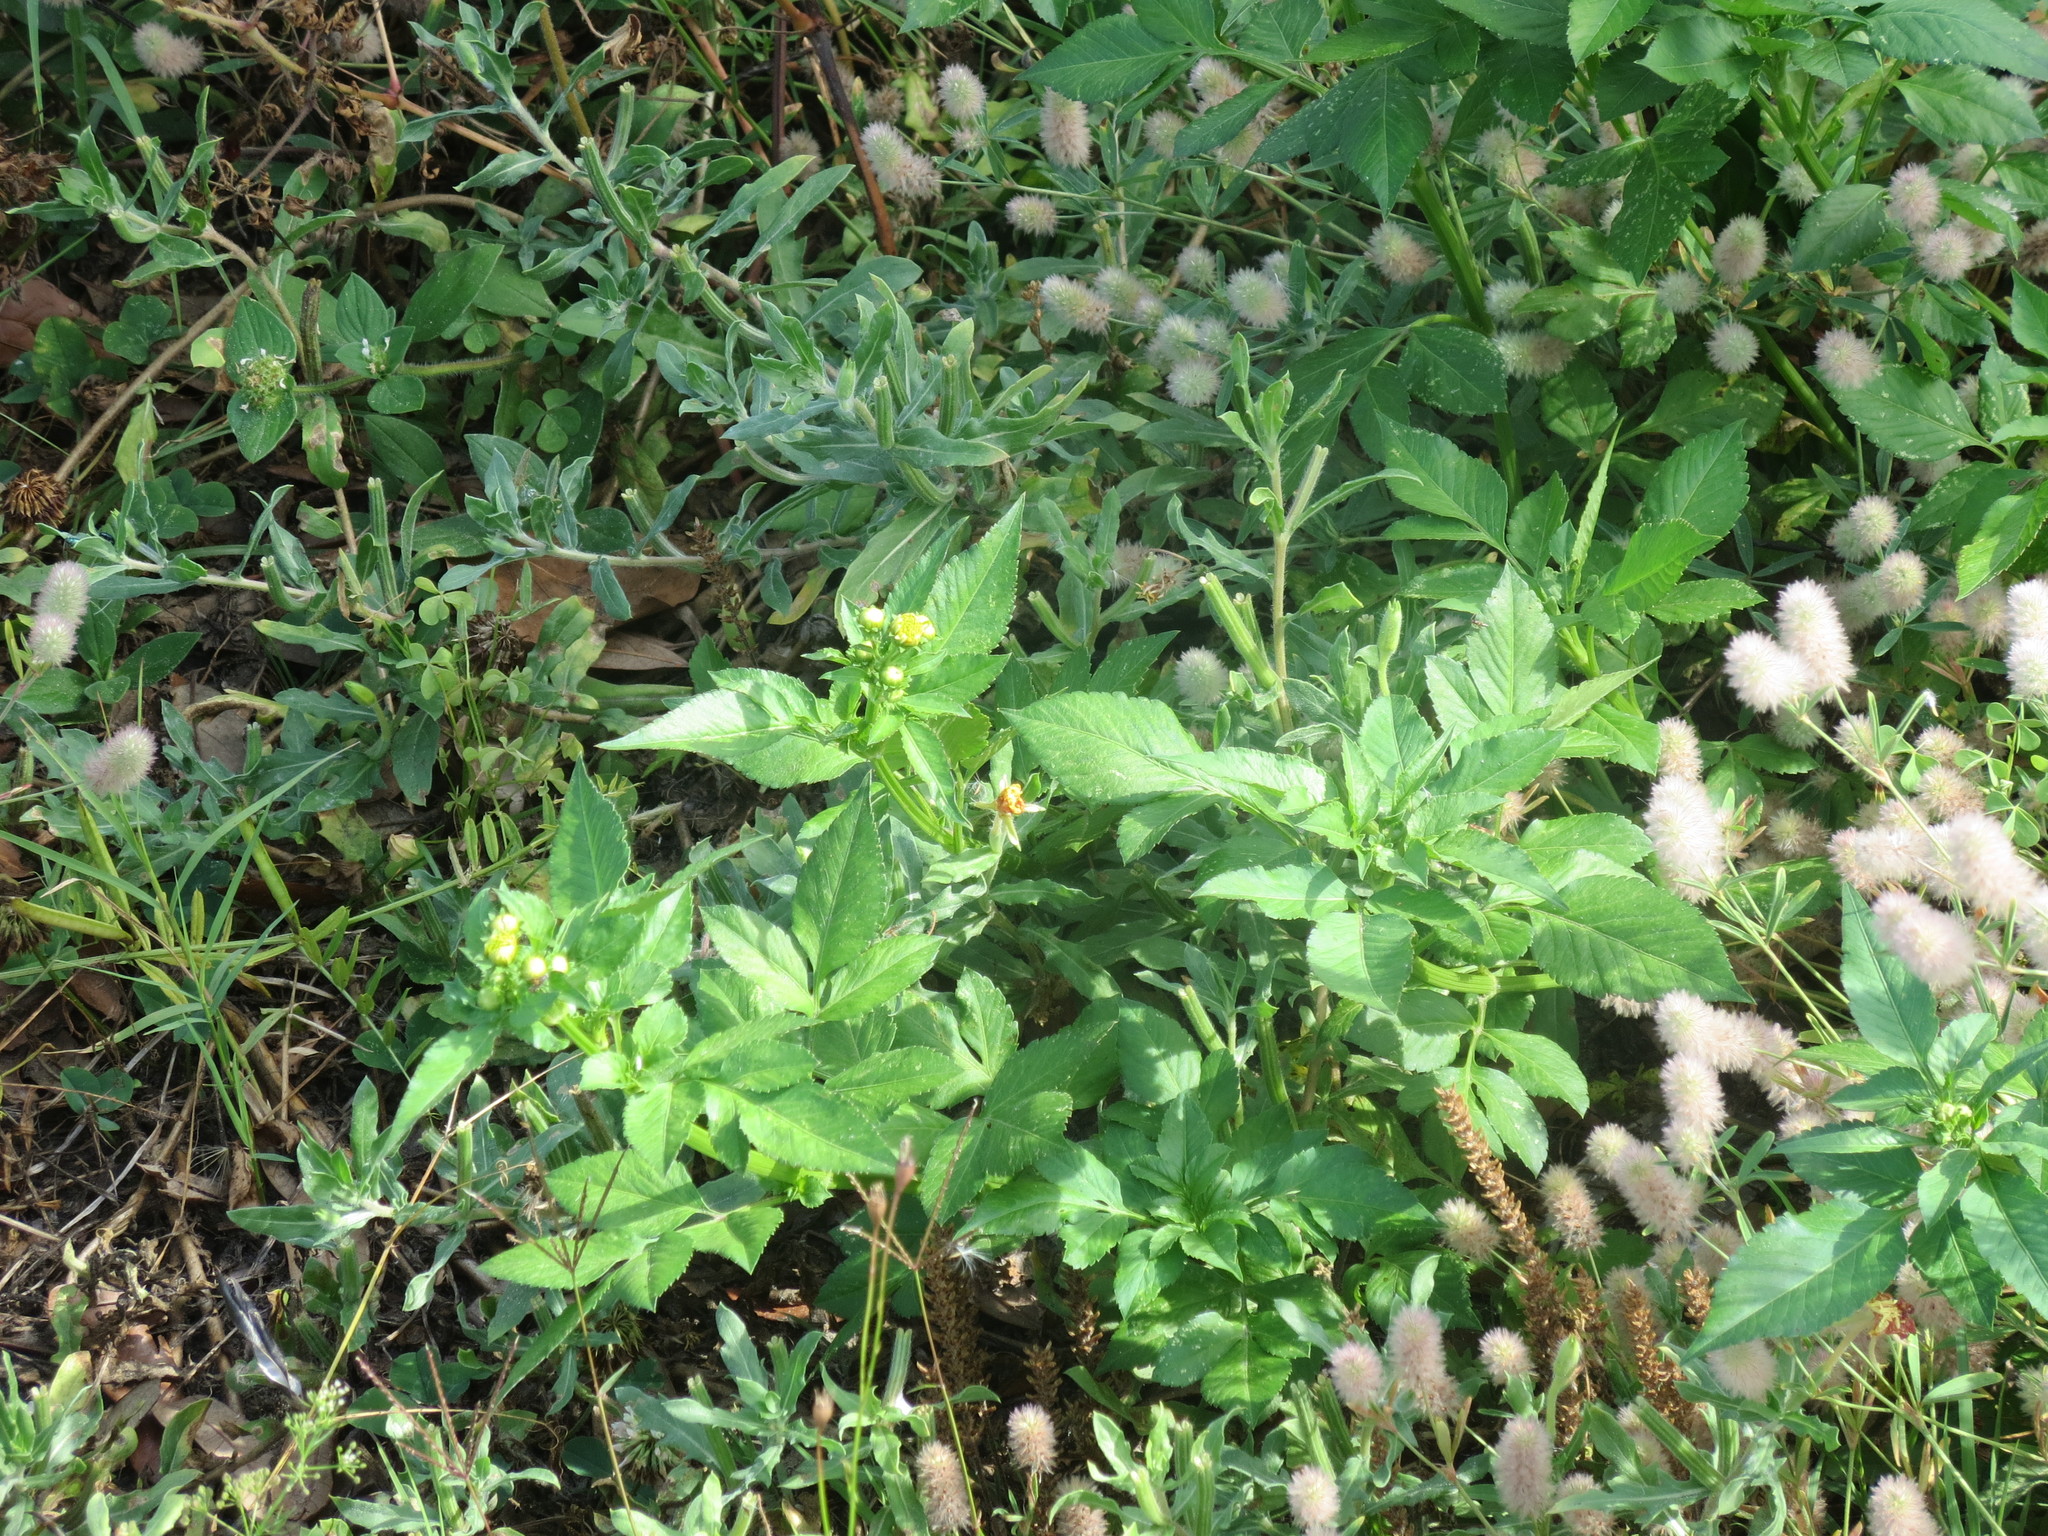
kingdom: Plantae
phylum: Tracheophyta
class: Magnoliopsida
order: Asterales
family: Asteraceae
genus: Bidens
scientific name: Bidens alba
